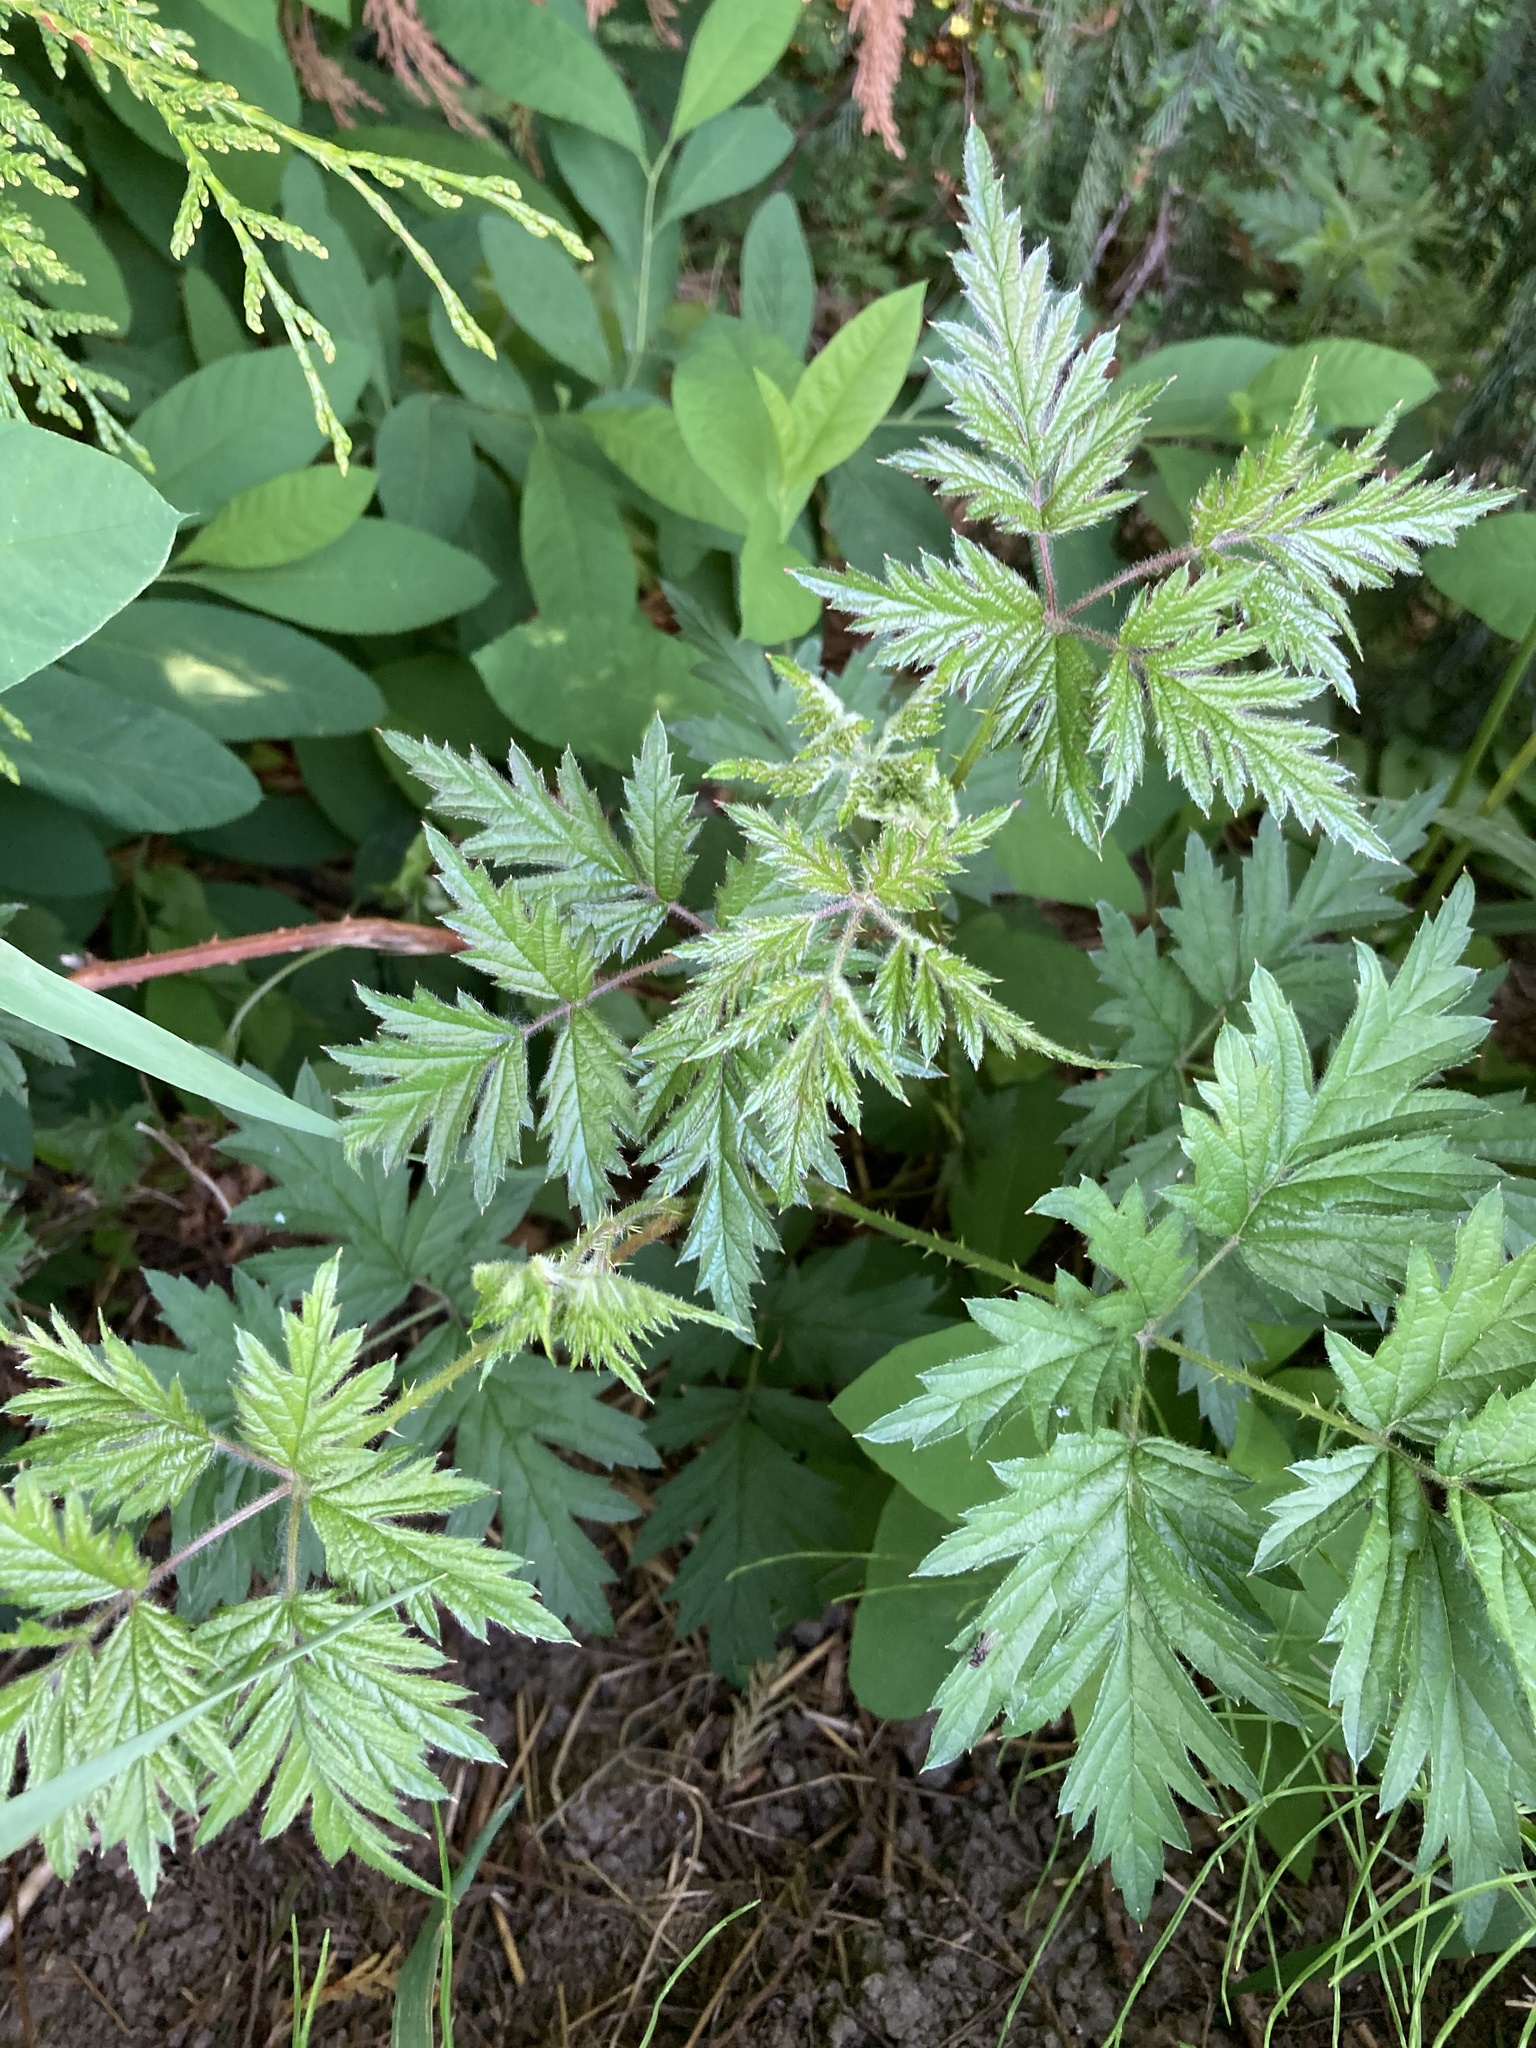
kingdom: Plantae
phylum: Tracheophyta
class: Magnoliopsida
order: Rosales
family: Rosaceae
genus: Rubus
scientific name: Rubus laciniatus
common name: Evergreen blackberry
